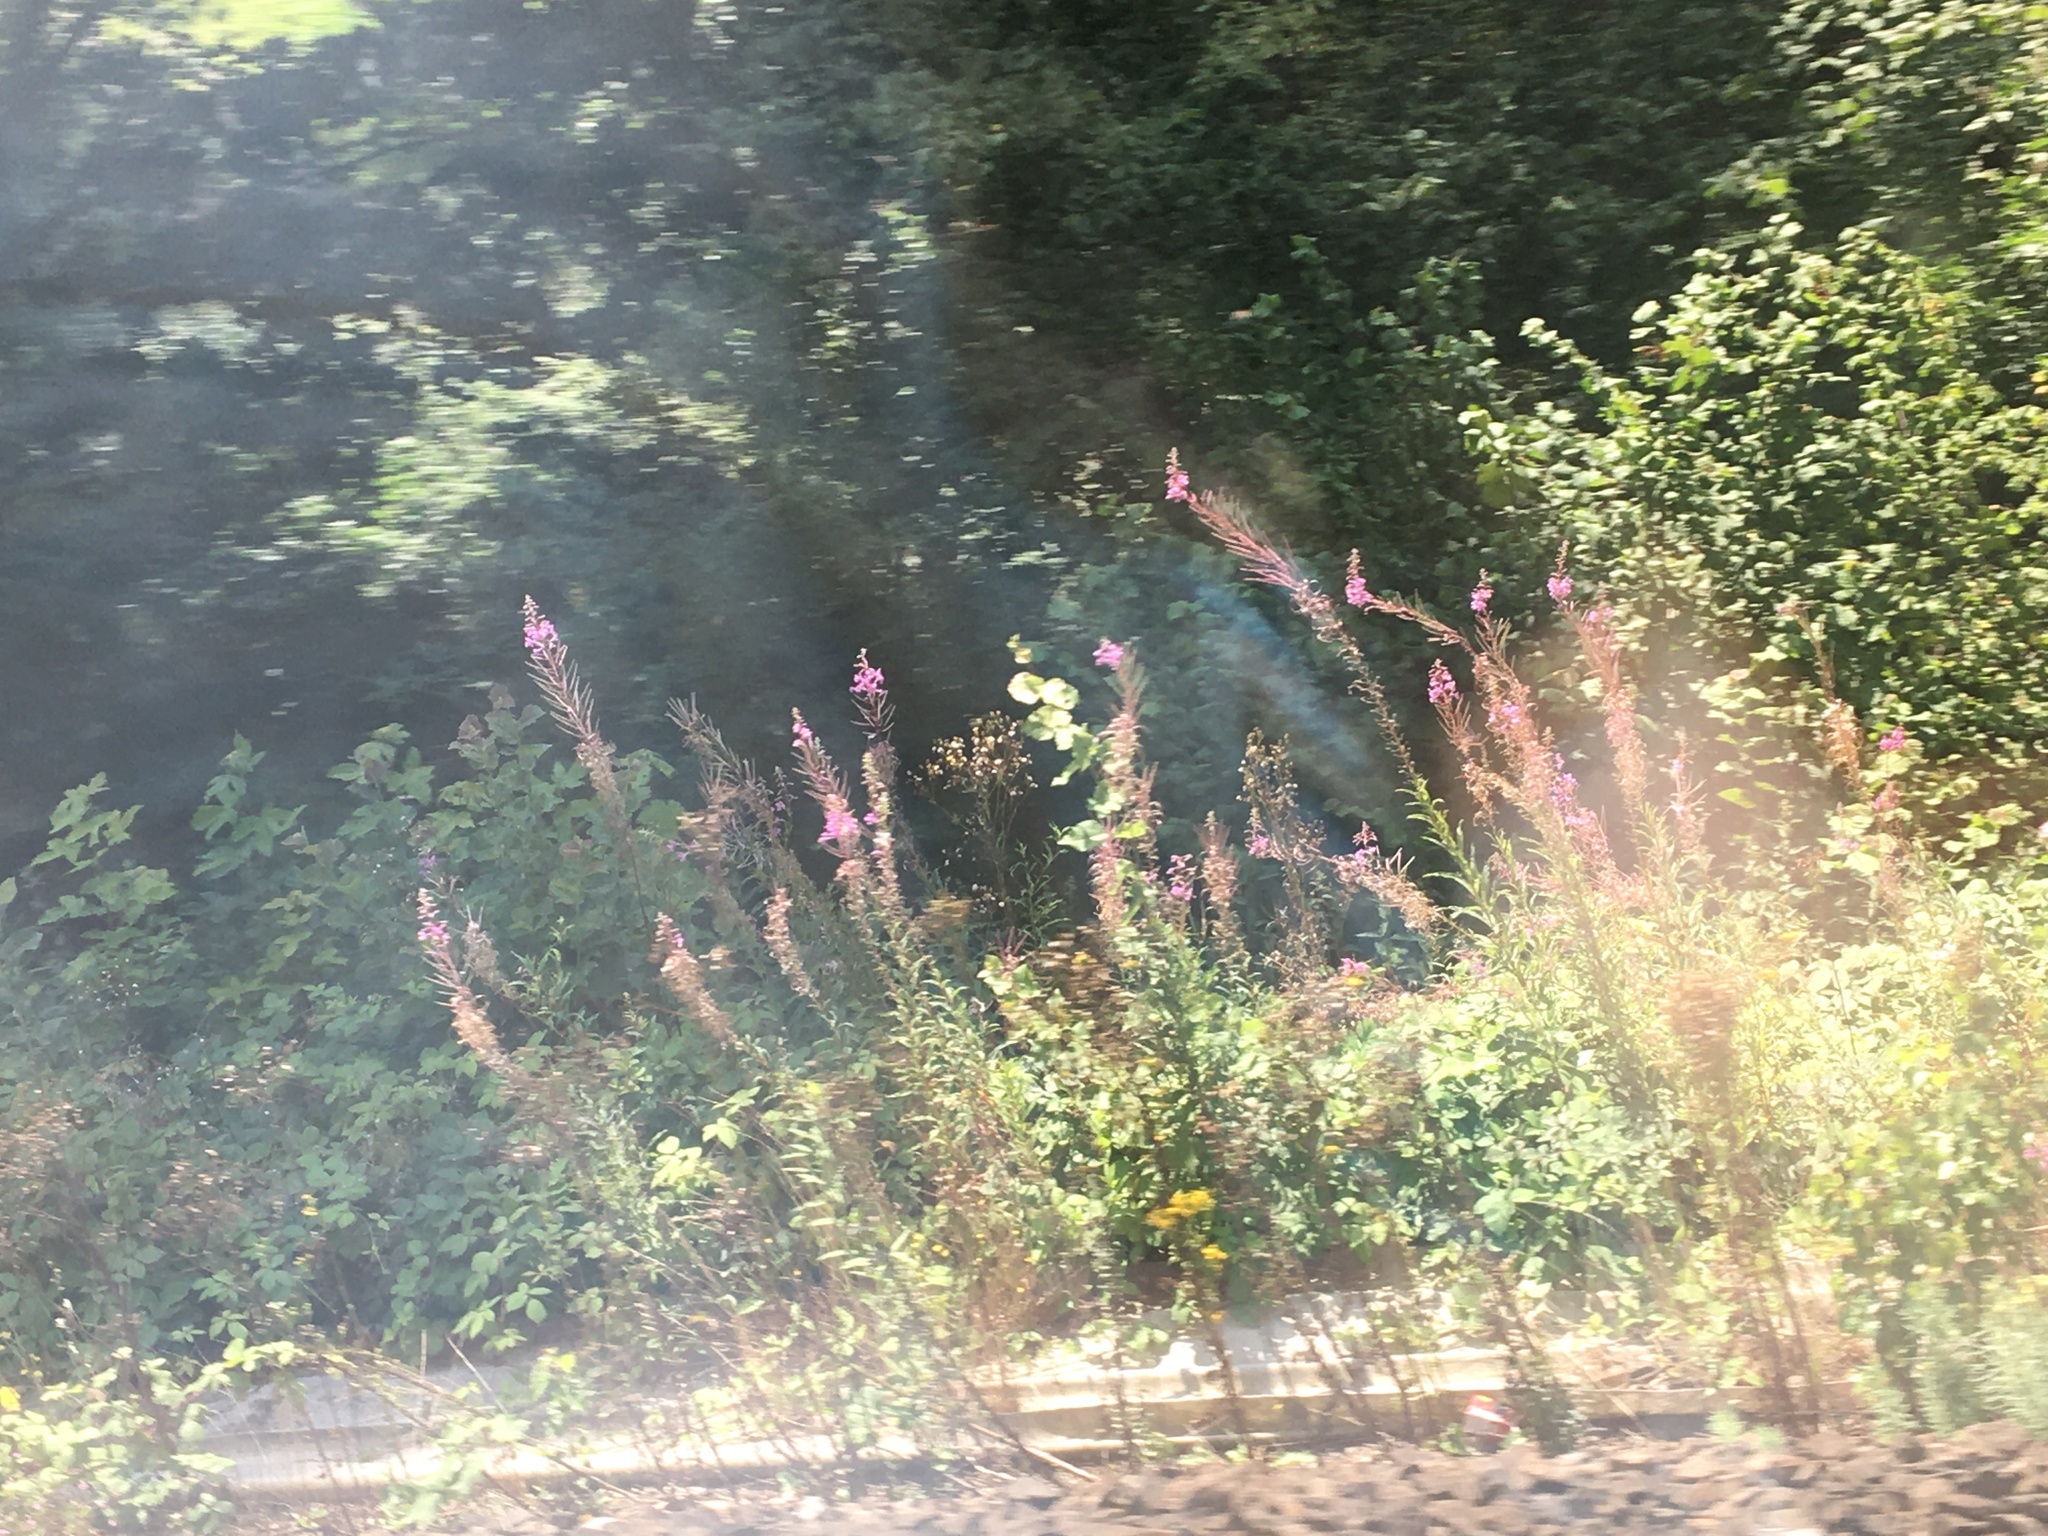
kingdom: Plantae
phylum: Tracheophyta
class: Magnoliopsida
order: Myrtales
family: Onagraceae
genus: Chamaenerion
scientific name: Chamaenerion angustifolium
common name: Fireweed
